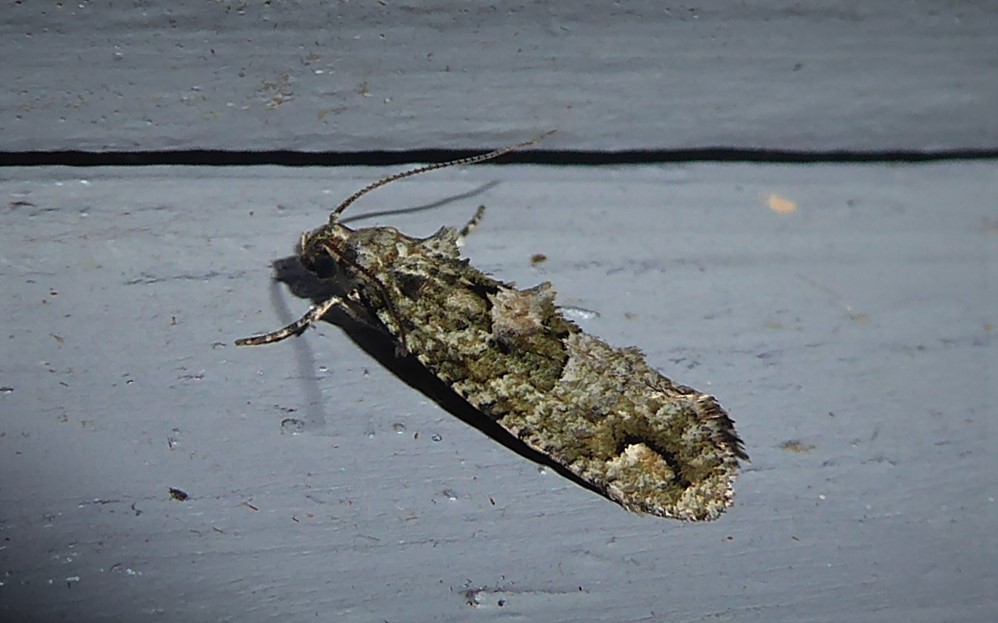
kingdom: Animalia
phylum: Arthropoda
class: Insecta
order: Lepidoptera
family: Tineidae
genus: Lysiphragma
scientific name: Lysiphragma howesii
